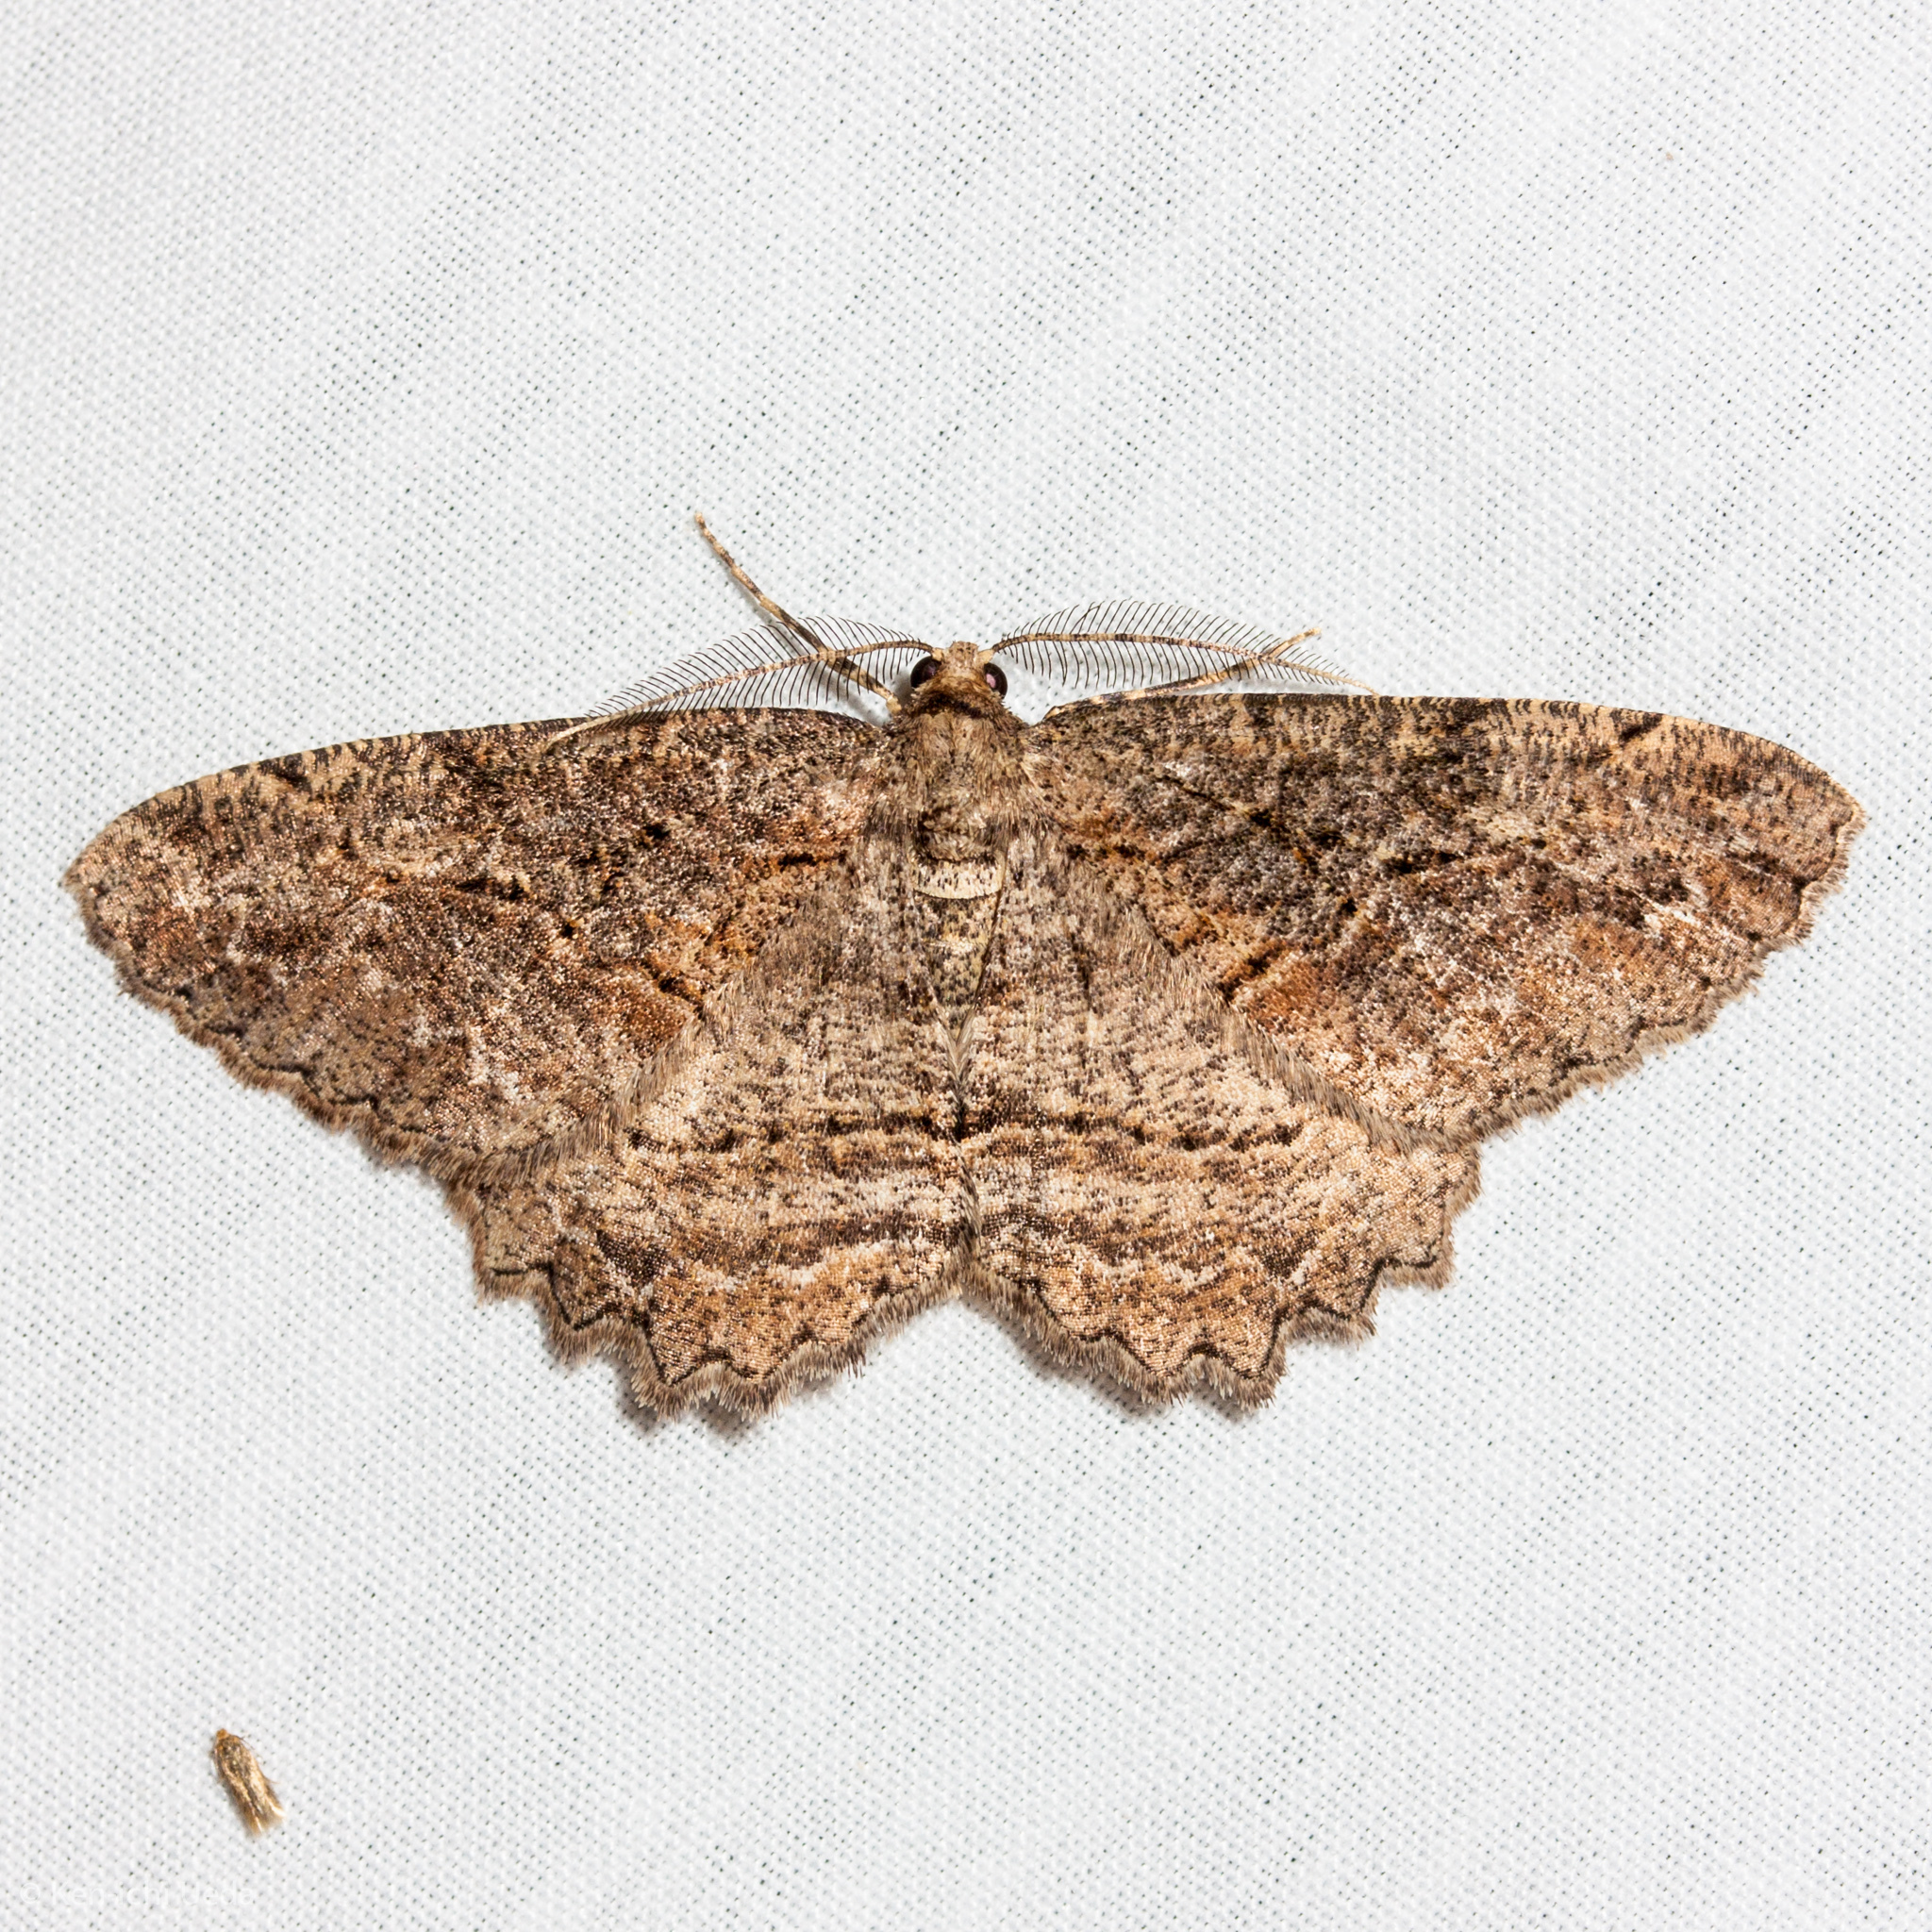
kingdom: Animalia
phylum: Arthropoda
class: Insecta
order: Lepidoptera
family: Geometridae
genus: Neoalcis
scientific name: Neoalcis californiaria
